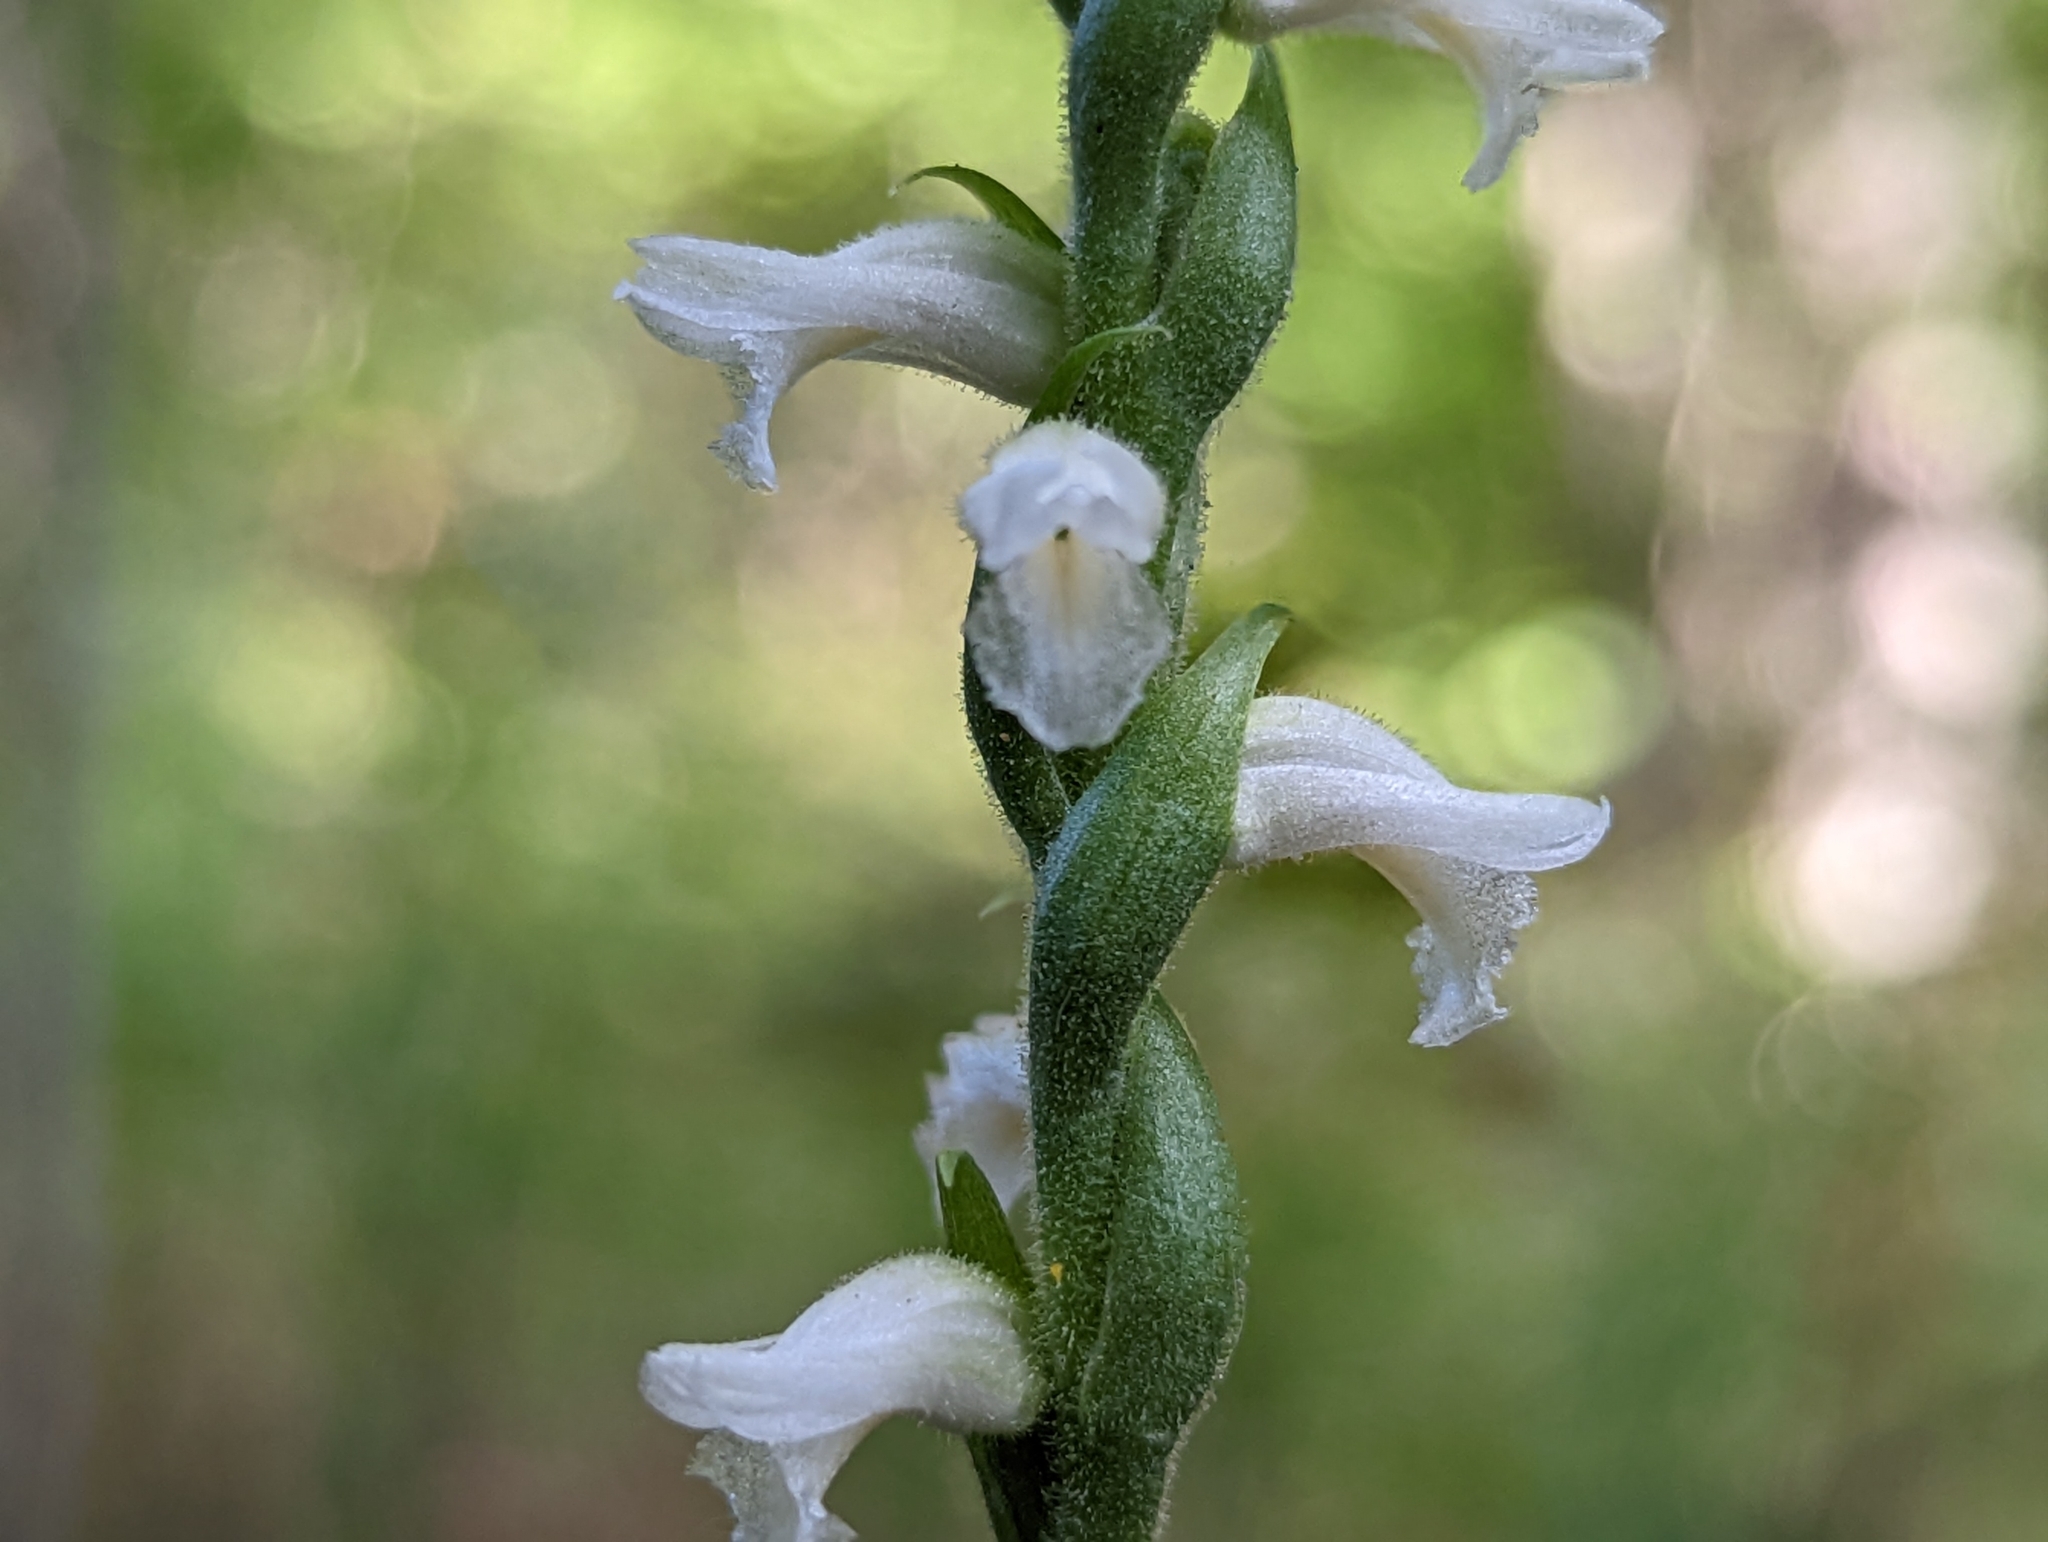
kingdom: Plantae
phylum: Tracheophyta
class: Liliopsida
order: Asparagales
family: Orchidaceae
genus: Spiranthes
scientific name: Spiranthes ochroleuca
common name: Yellow ladies'-tresses
